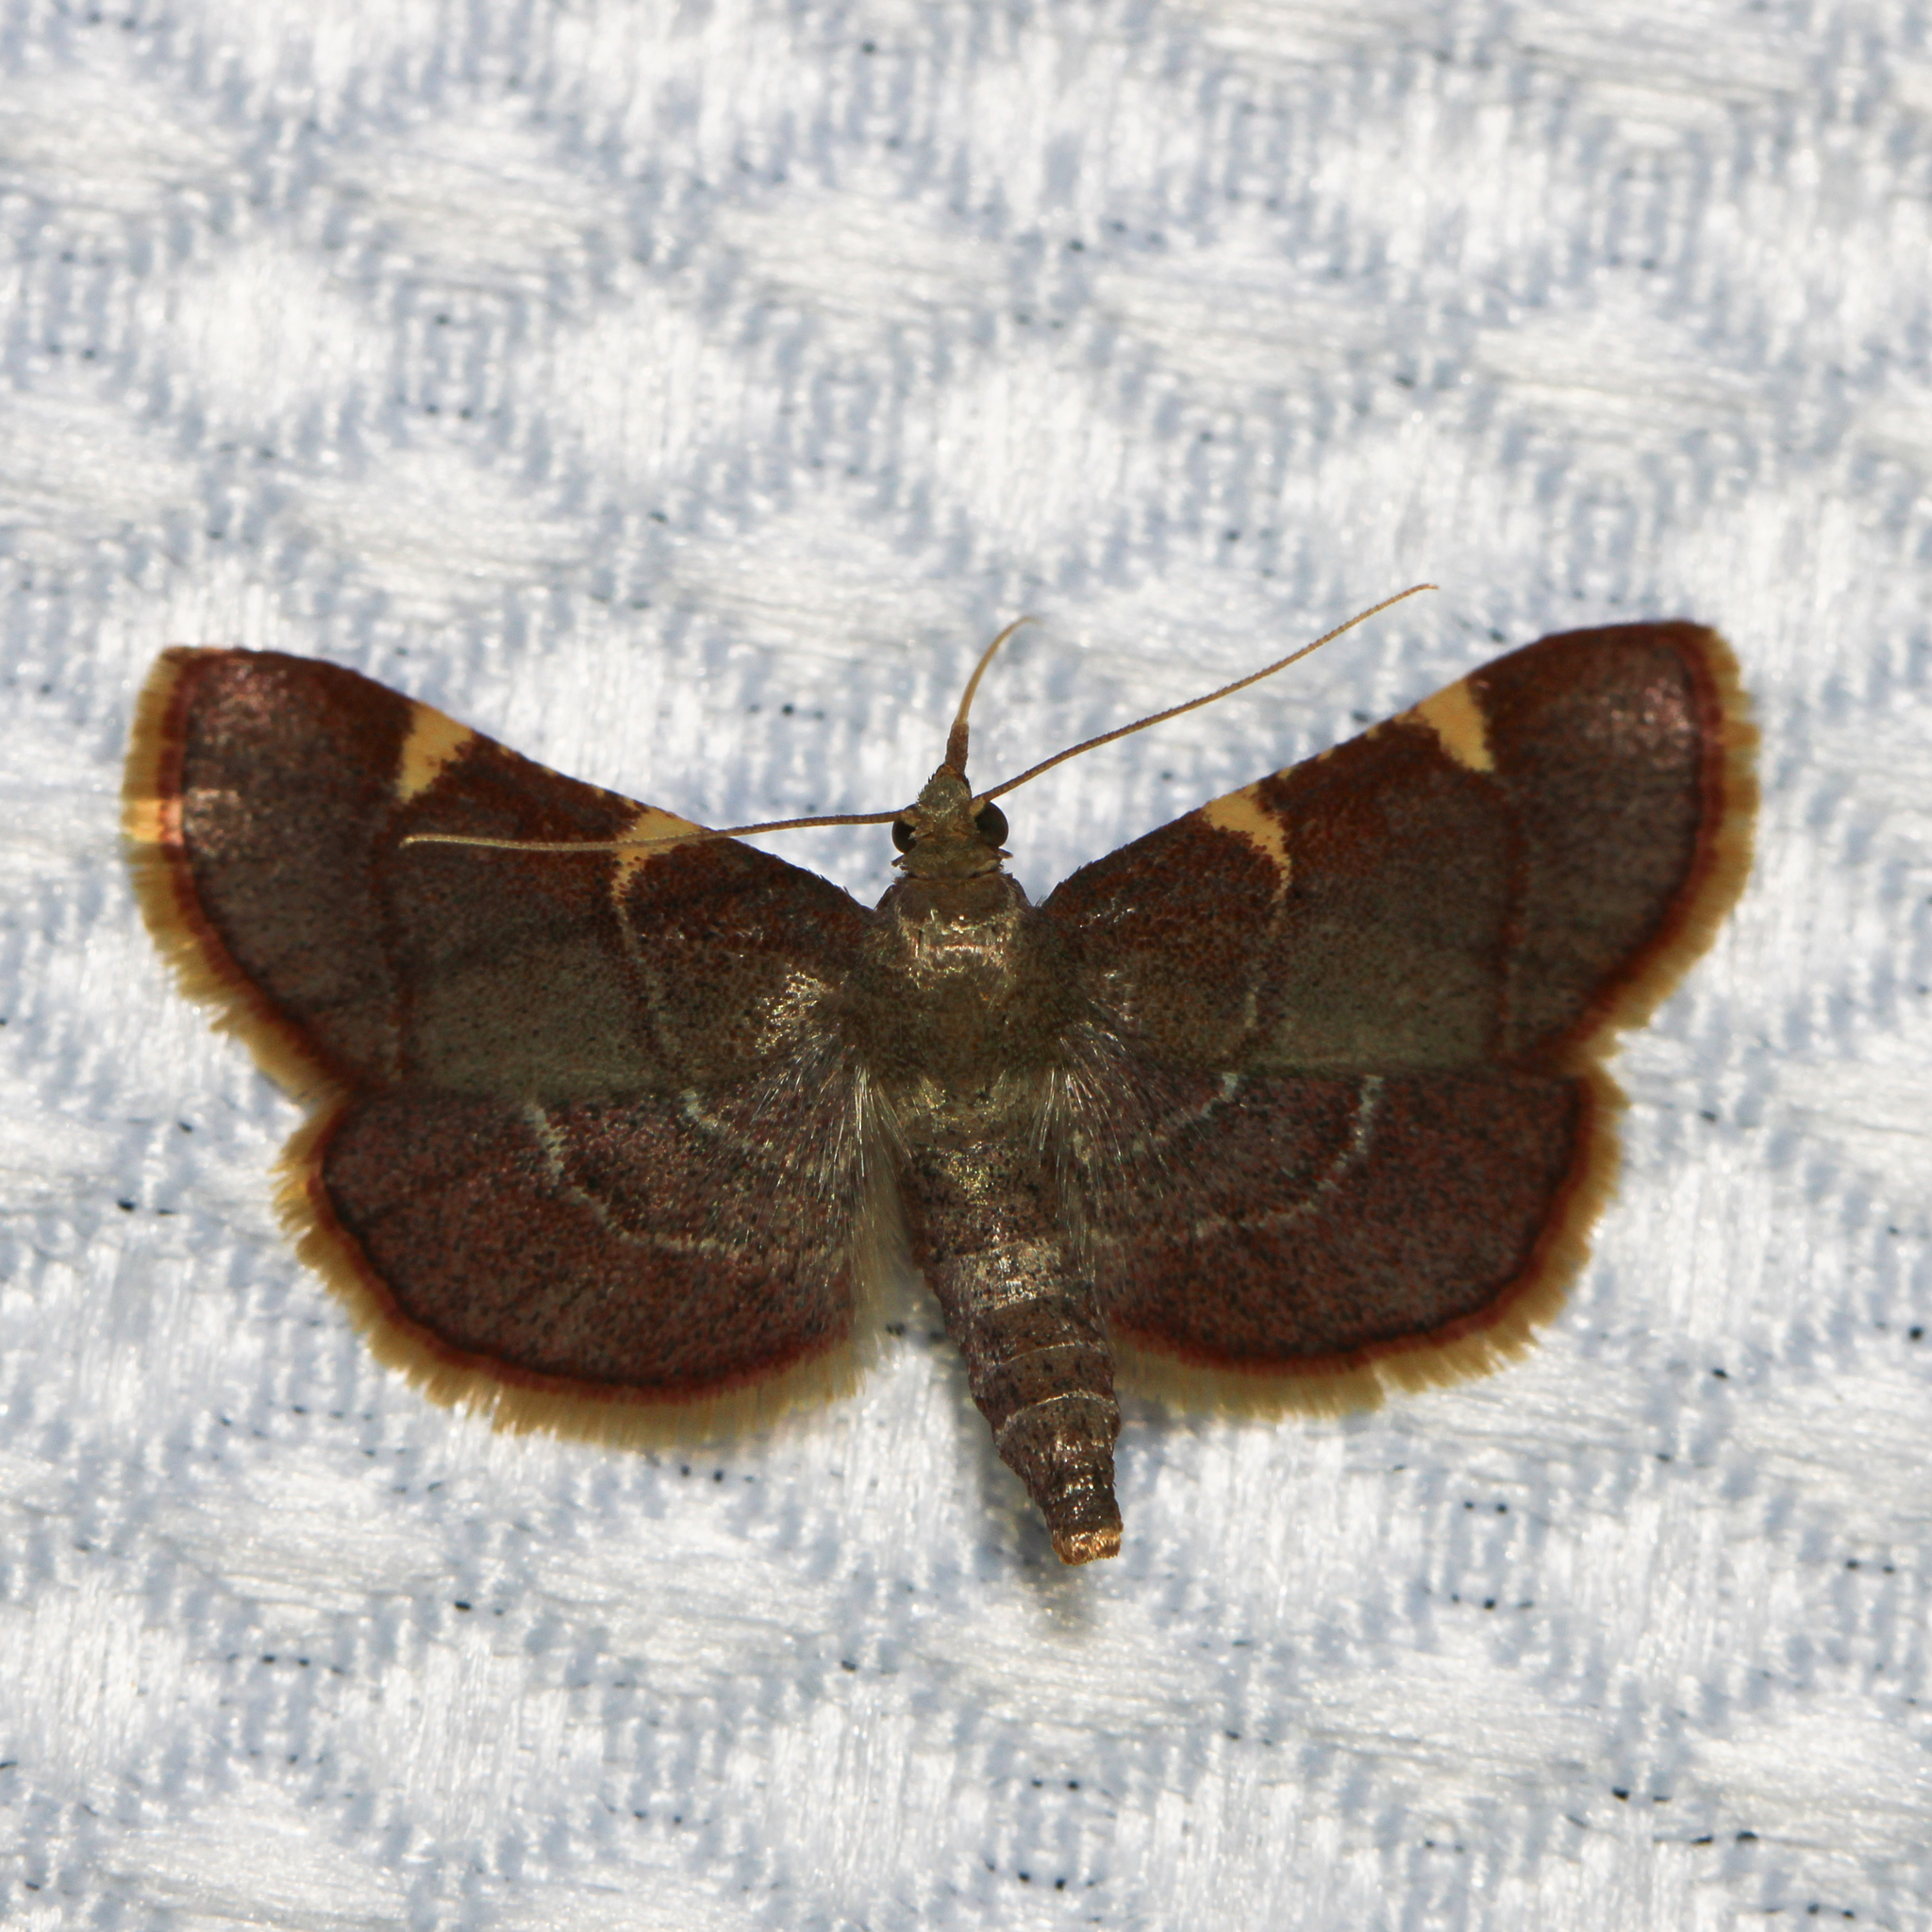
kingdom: Animalia
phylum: Arthropoda
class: Insecta
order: Lepidoptera
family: Pyralidae
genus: Hypsopygia
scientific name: Hypsopygia olinalis
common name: Yellow-fringed dolichomia moth
